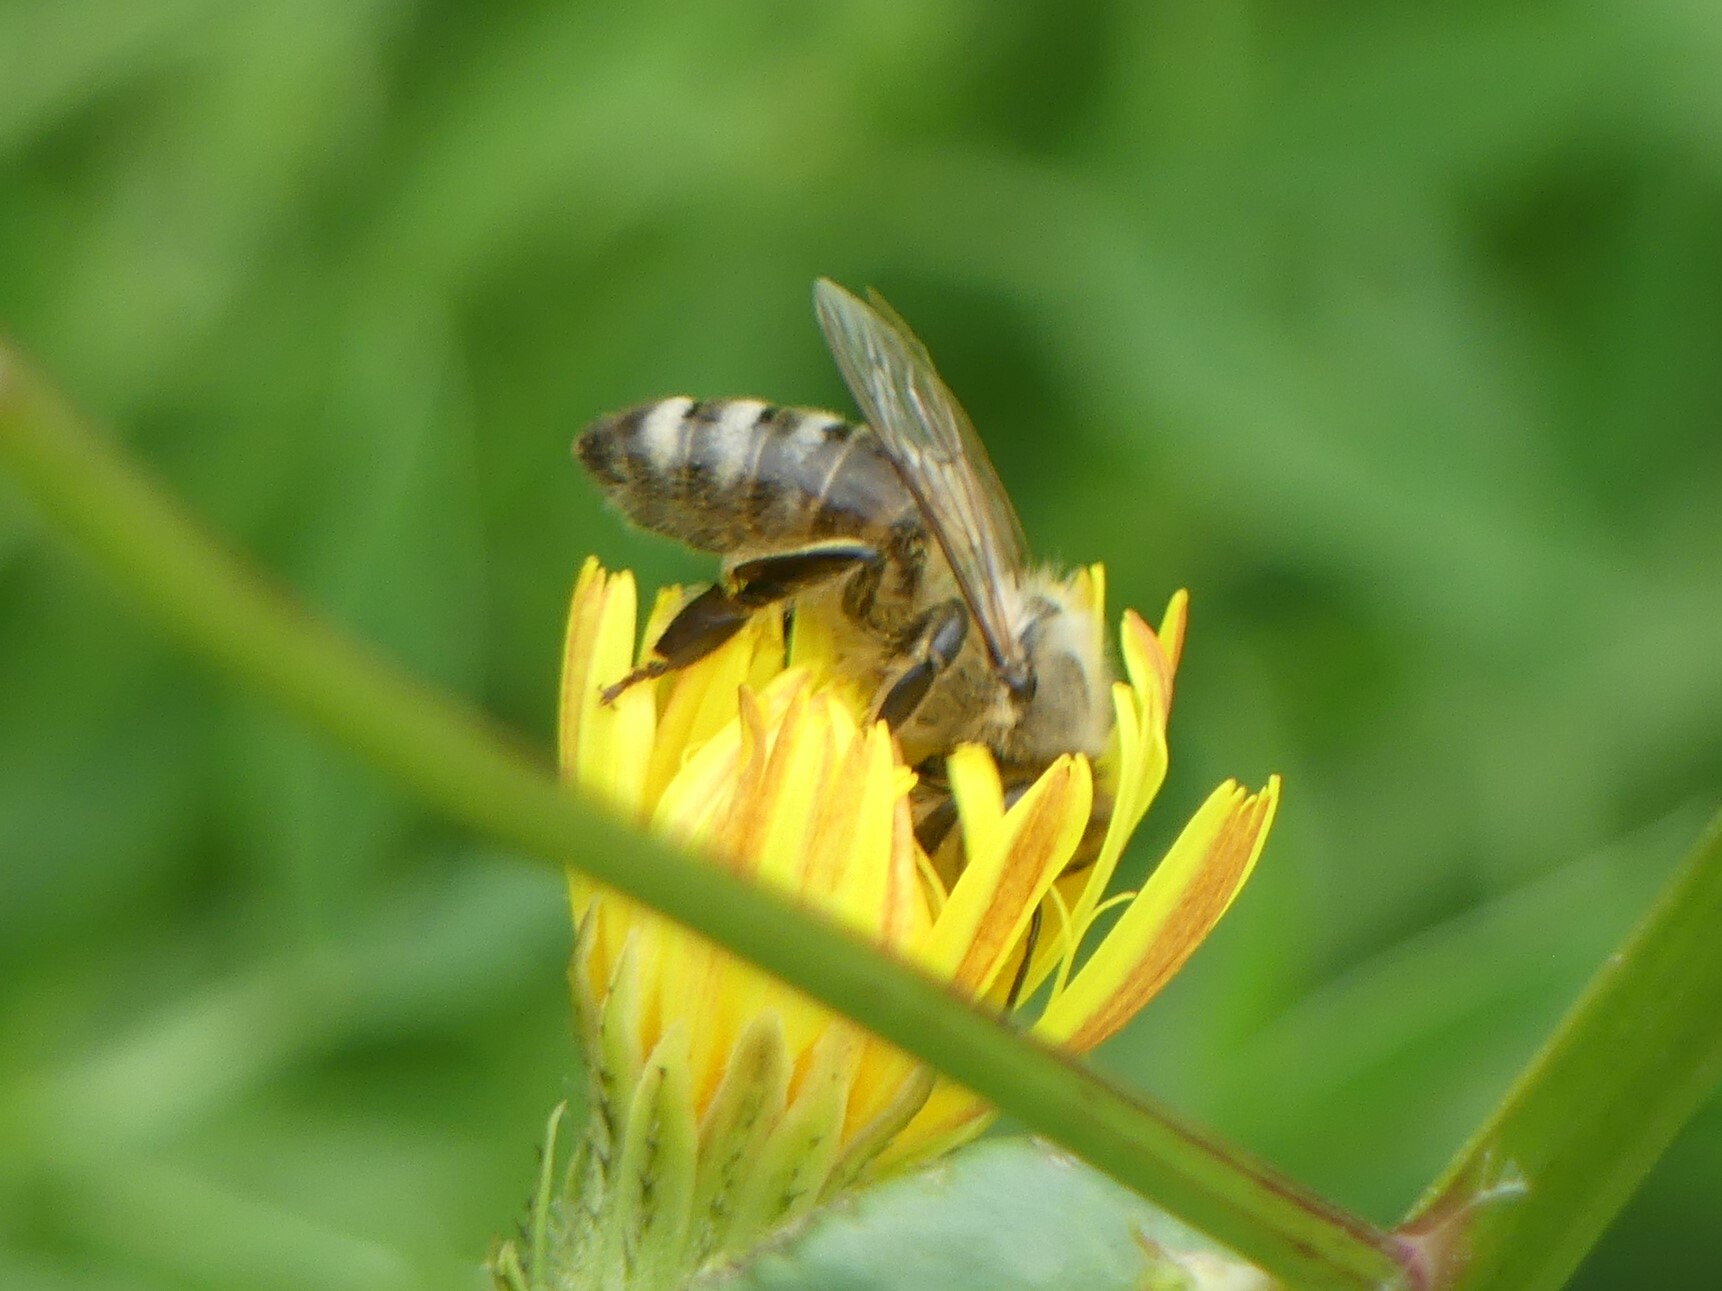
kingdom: Animalia
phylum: Arthropoda
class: Insecta
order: Hymenoptera
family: Apidae
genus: Apis
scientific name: Apis mellifera
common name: Honey bee
